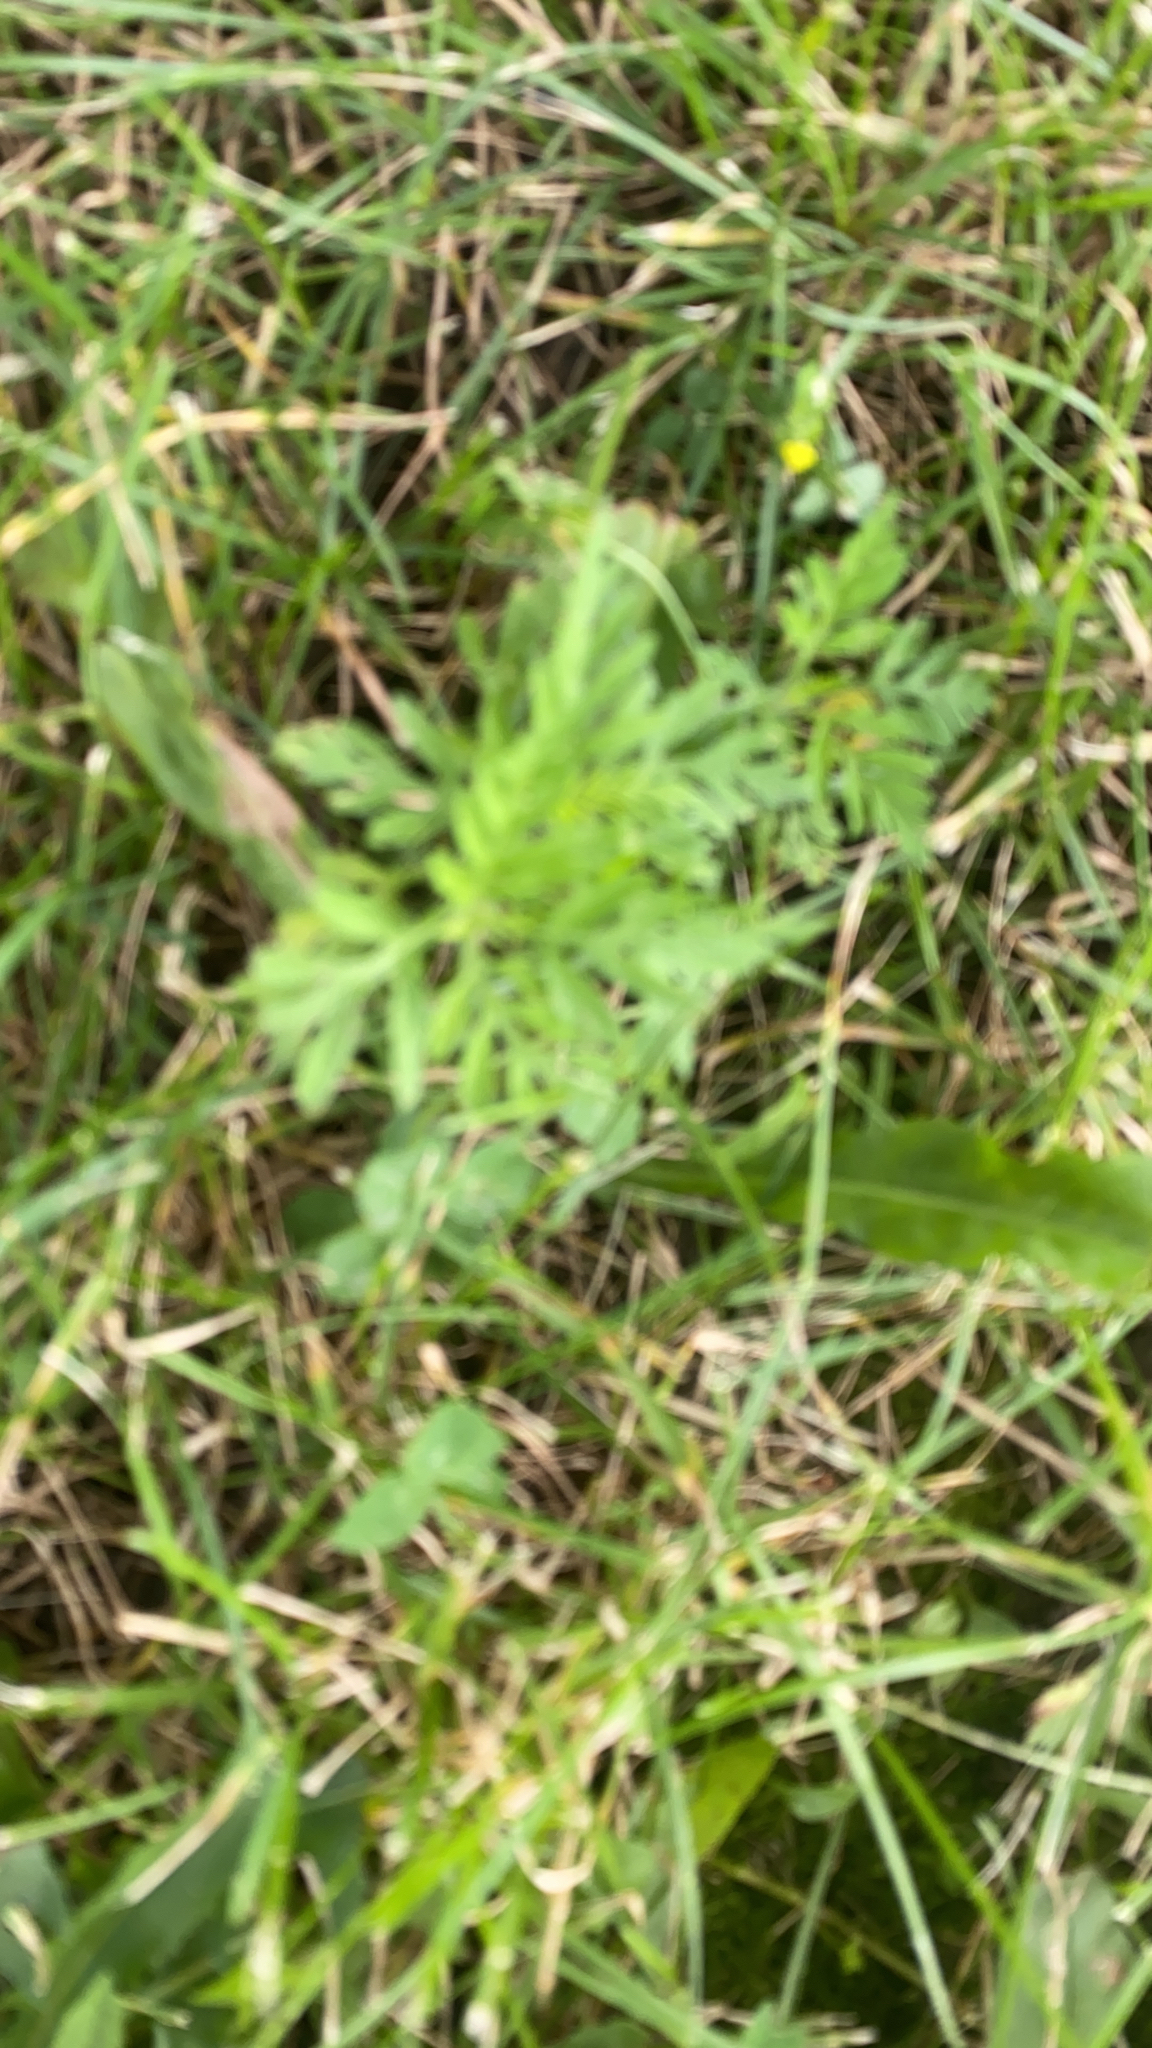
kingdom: Plantae
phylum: Tracheophyta
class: Magnoliopsida
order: Asterales
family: Asteraceae
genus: Ambrosia
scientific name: Ambrosia artemisiifolia
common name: Annual ragweed
